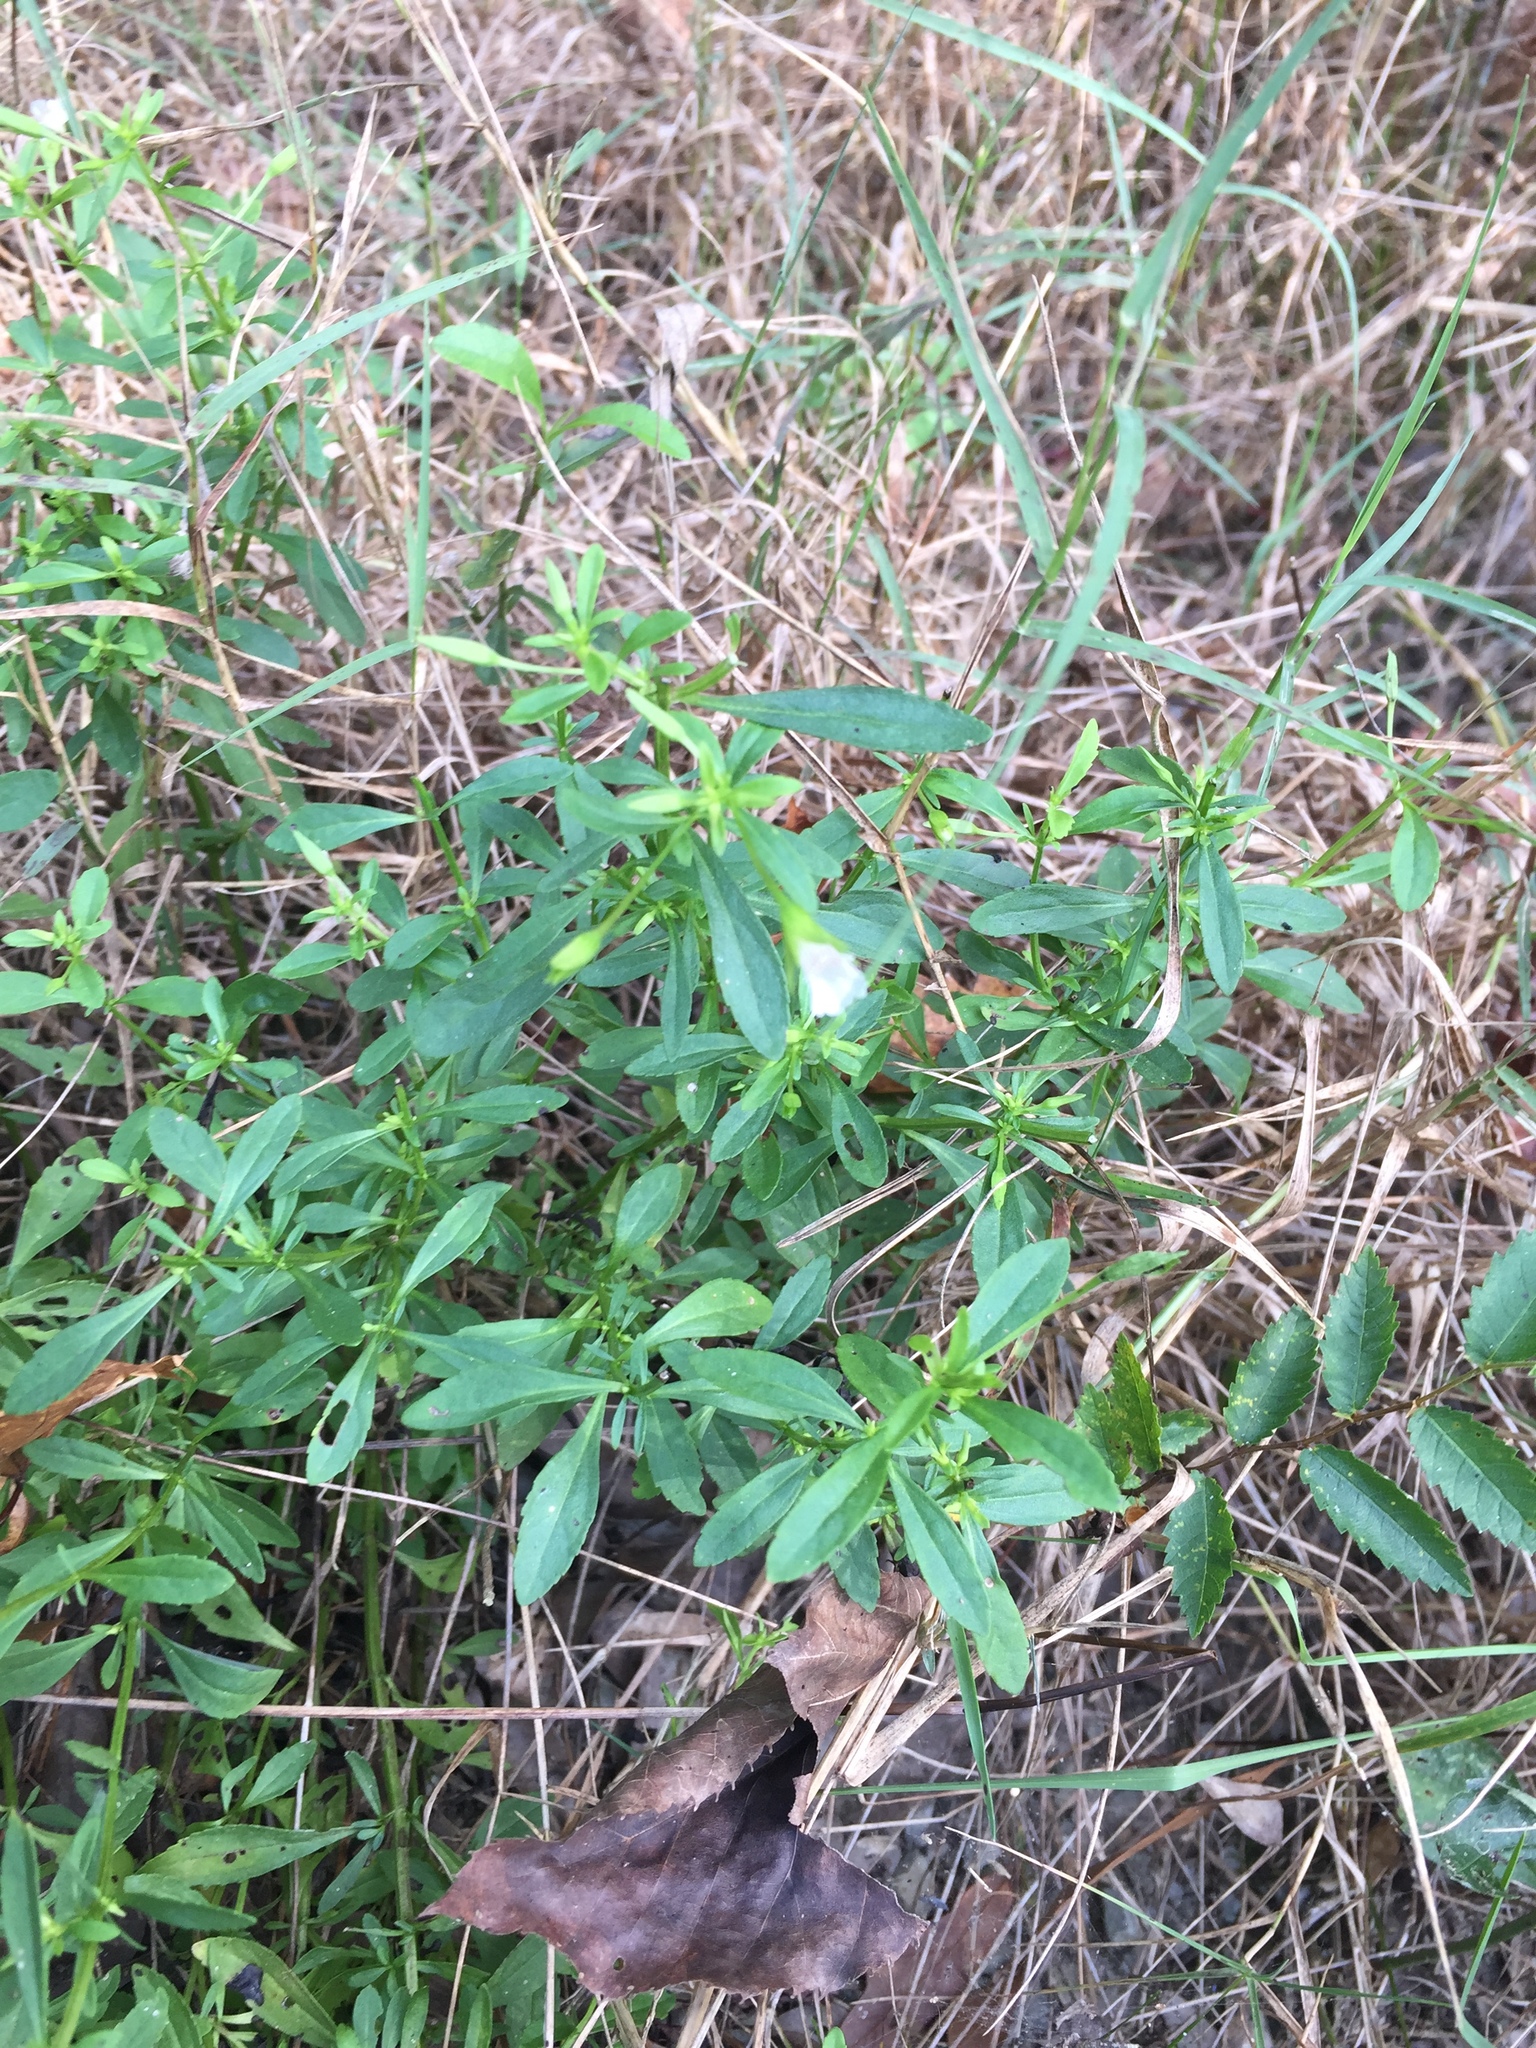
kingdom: Plantae
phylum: Tracheophyta
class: Magnoliopsida
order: Lamiales
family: Plantaginaceae
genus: Mecardonia
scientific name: Mecardonia acuminata
